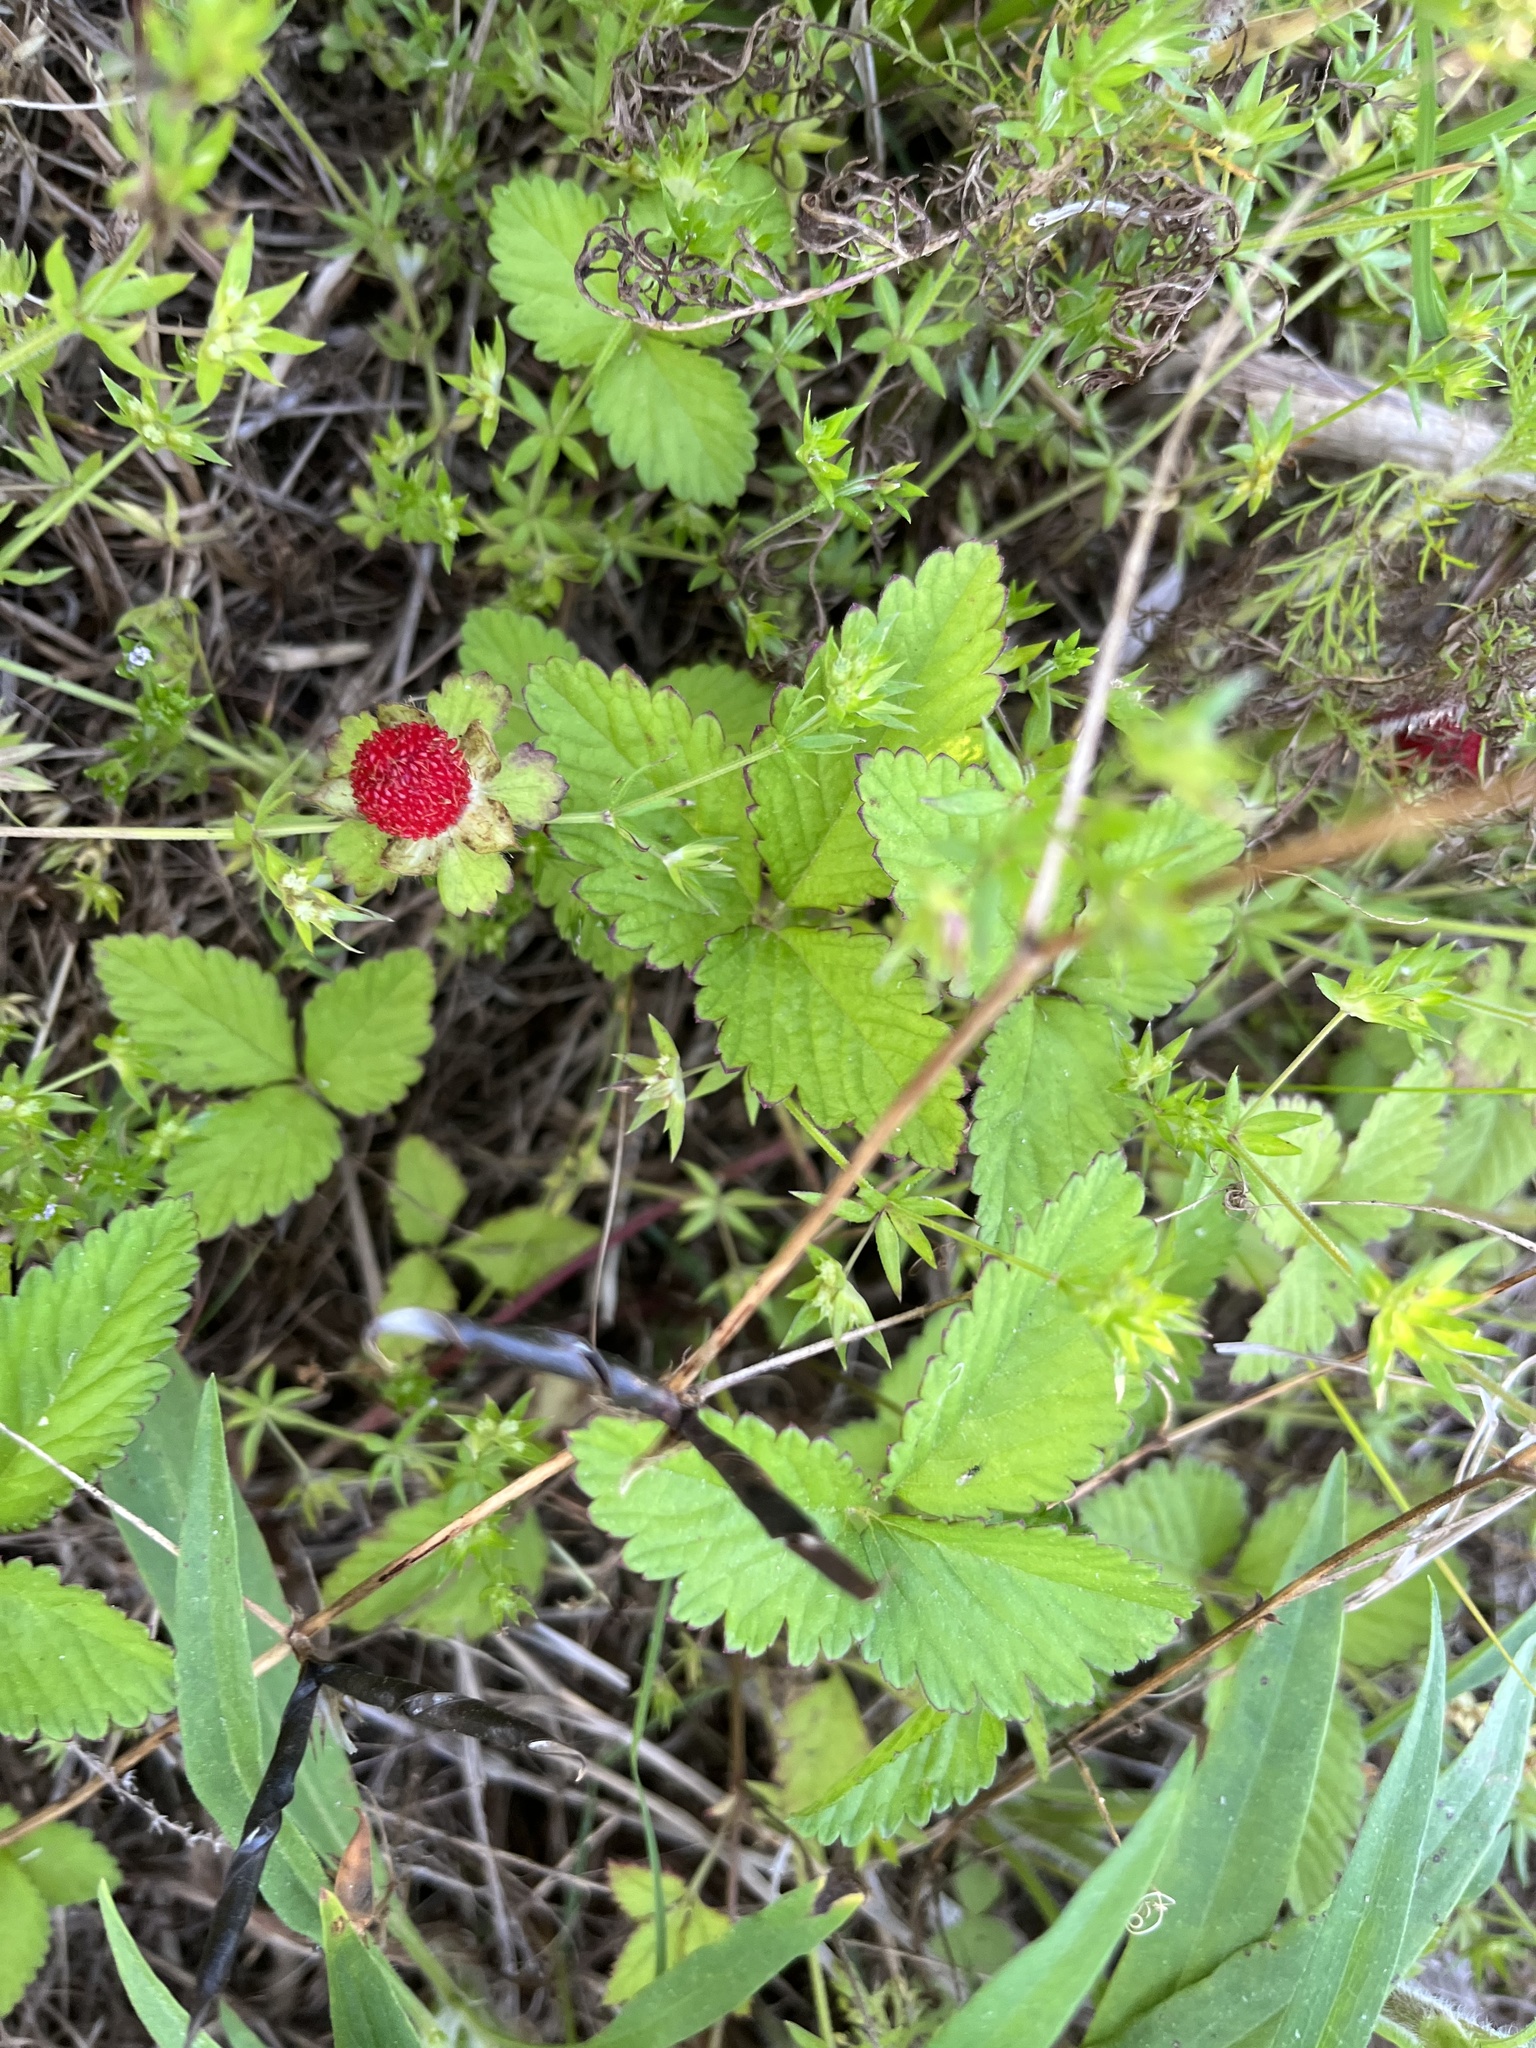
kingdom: Plantae
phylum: Tracheophyta
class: Magnoliopsida
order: Rosales
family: Rosaceae
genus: Potentilla
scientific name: Potentilla indica
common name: Yellow-flowered strawberry
